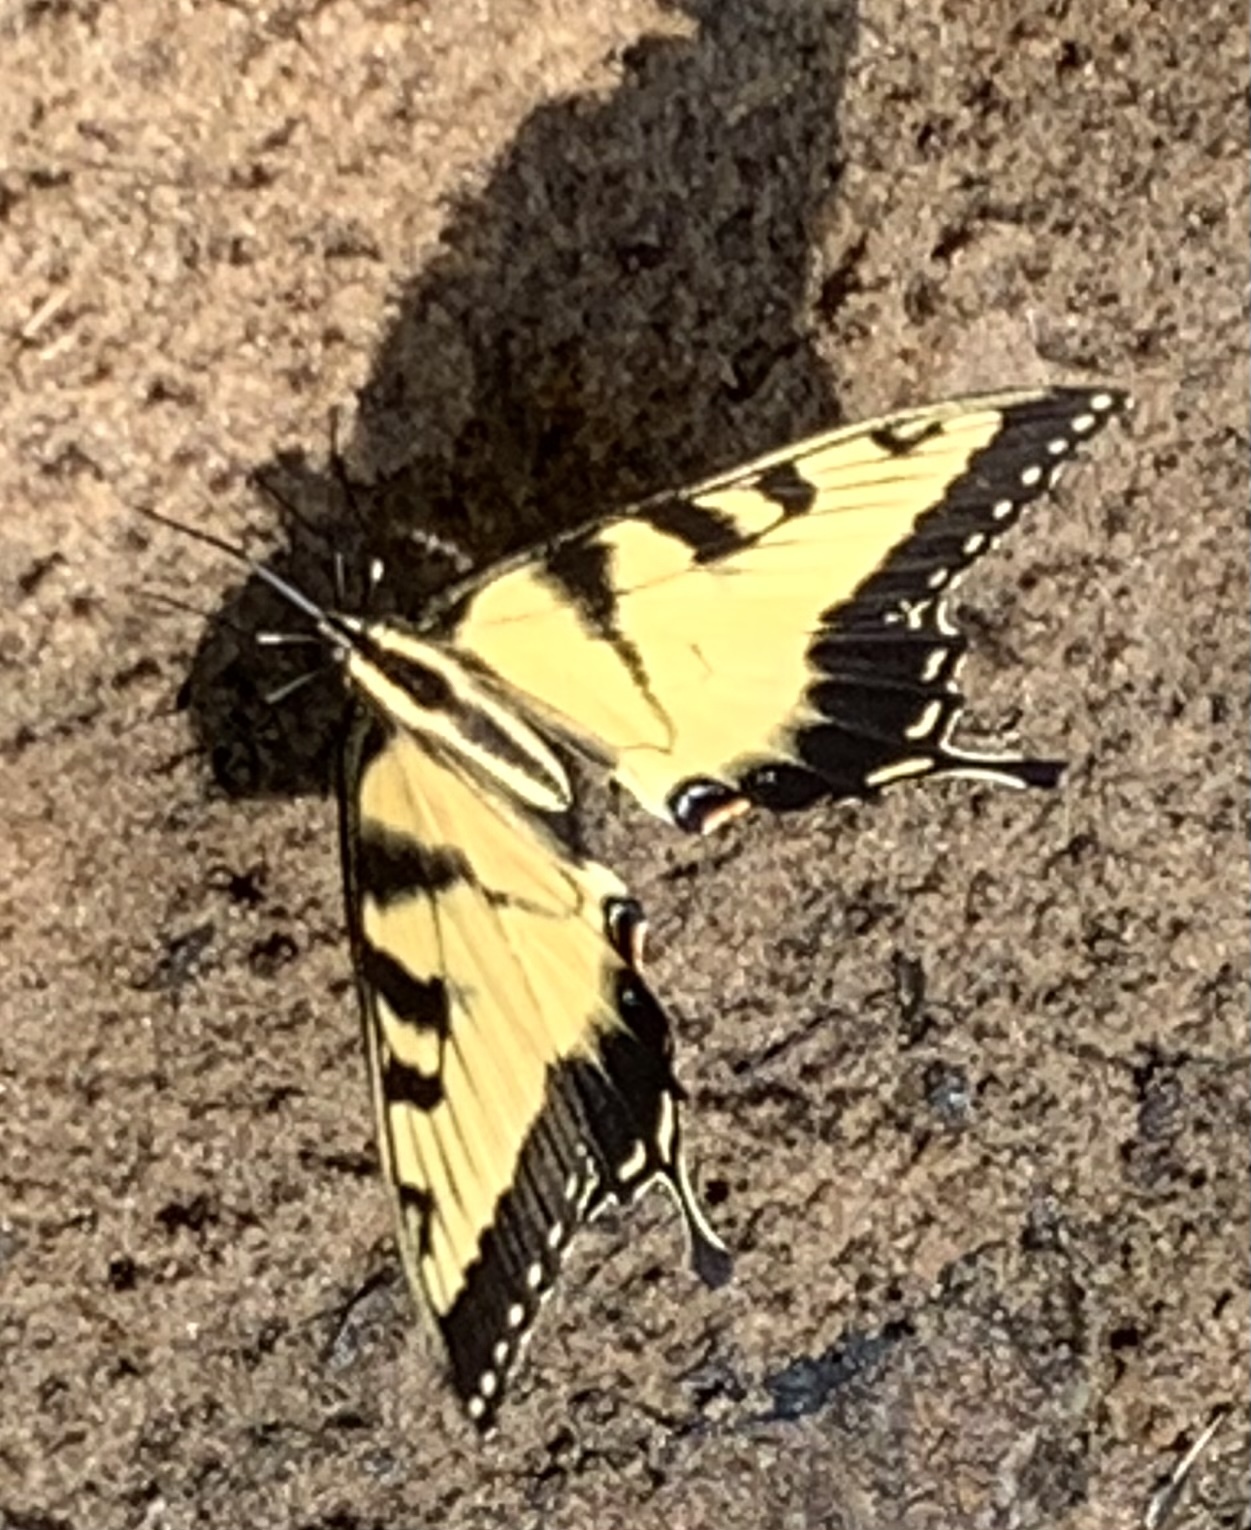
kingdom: Animalia
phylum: Arthropoda
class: Insecta
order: Lepidoptera
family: Papilionidae
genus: Papilio
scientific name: Papilio glaucus
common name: Tiger swallowtail
